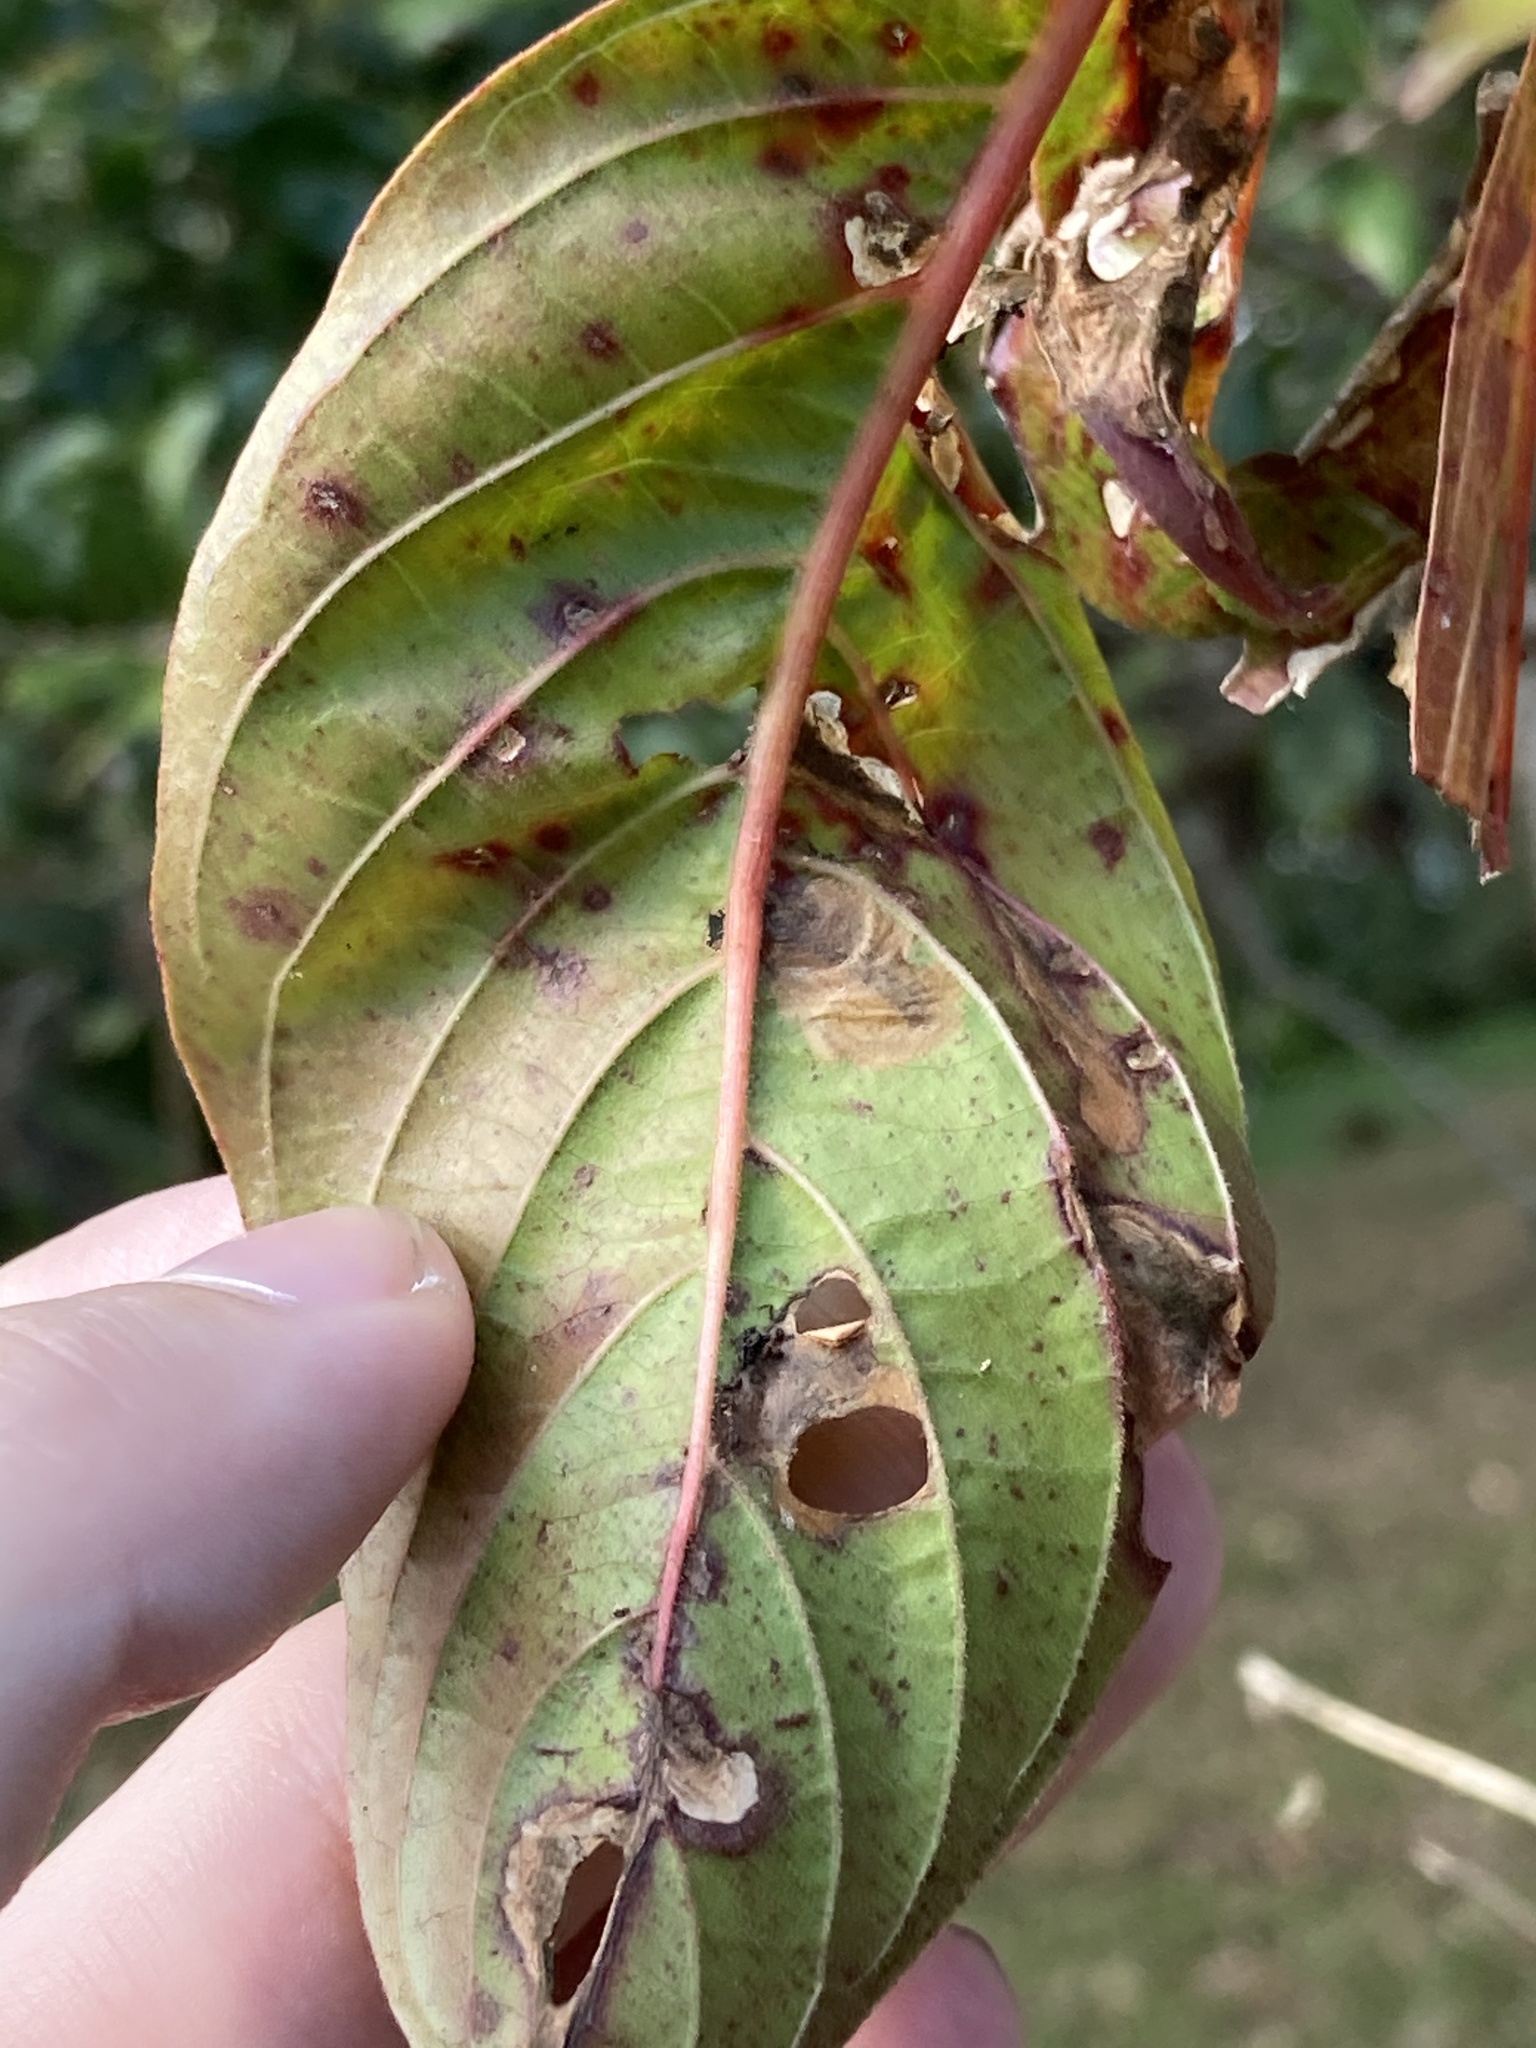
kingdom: Plantae
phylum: Tracheophyta
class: Magnoliopsida
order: Gentianales
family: Rubiaceae
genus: Hamelia
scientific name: Hamelia patens
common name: Redhead
